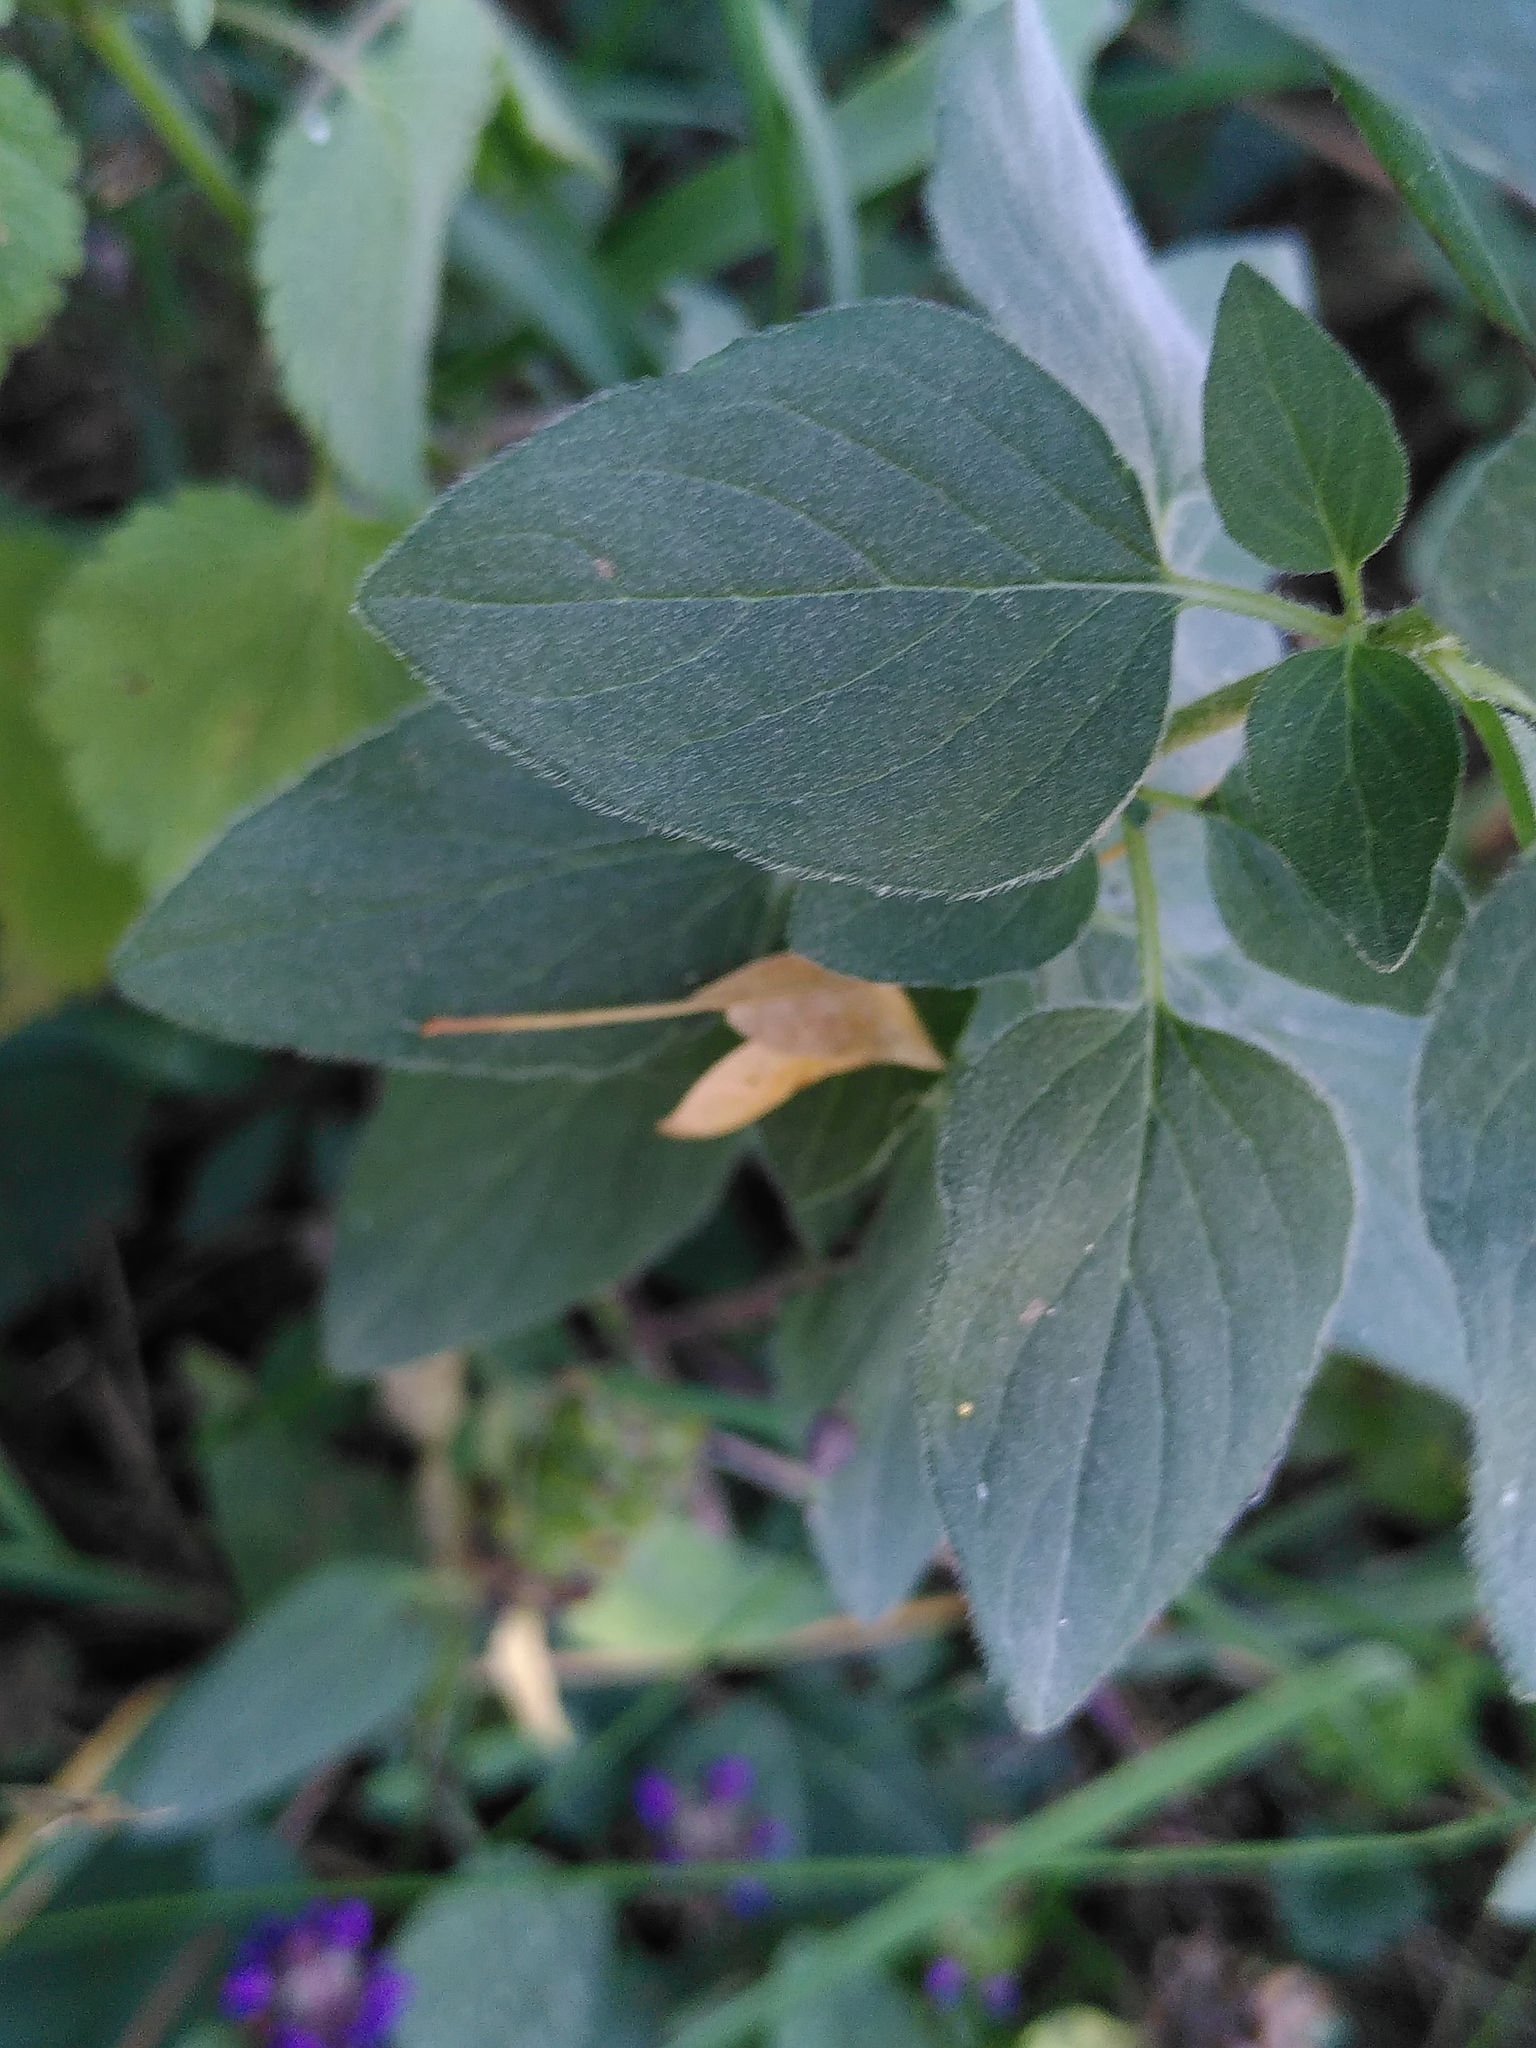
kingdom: Plantae
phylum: Tracheophyta
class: Magnoliopsida
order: Lamiales
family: Lamiaceae
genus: Origanum
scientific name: Origanum vulgare
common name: Wild marjoram
